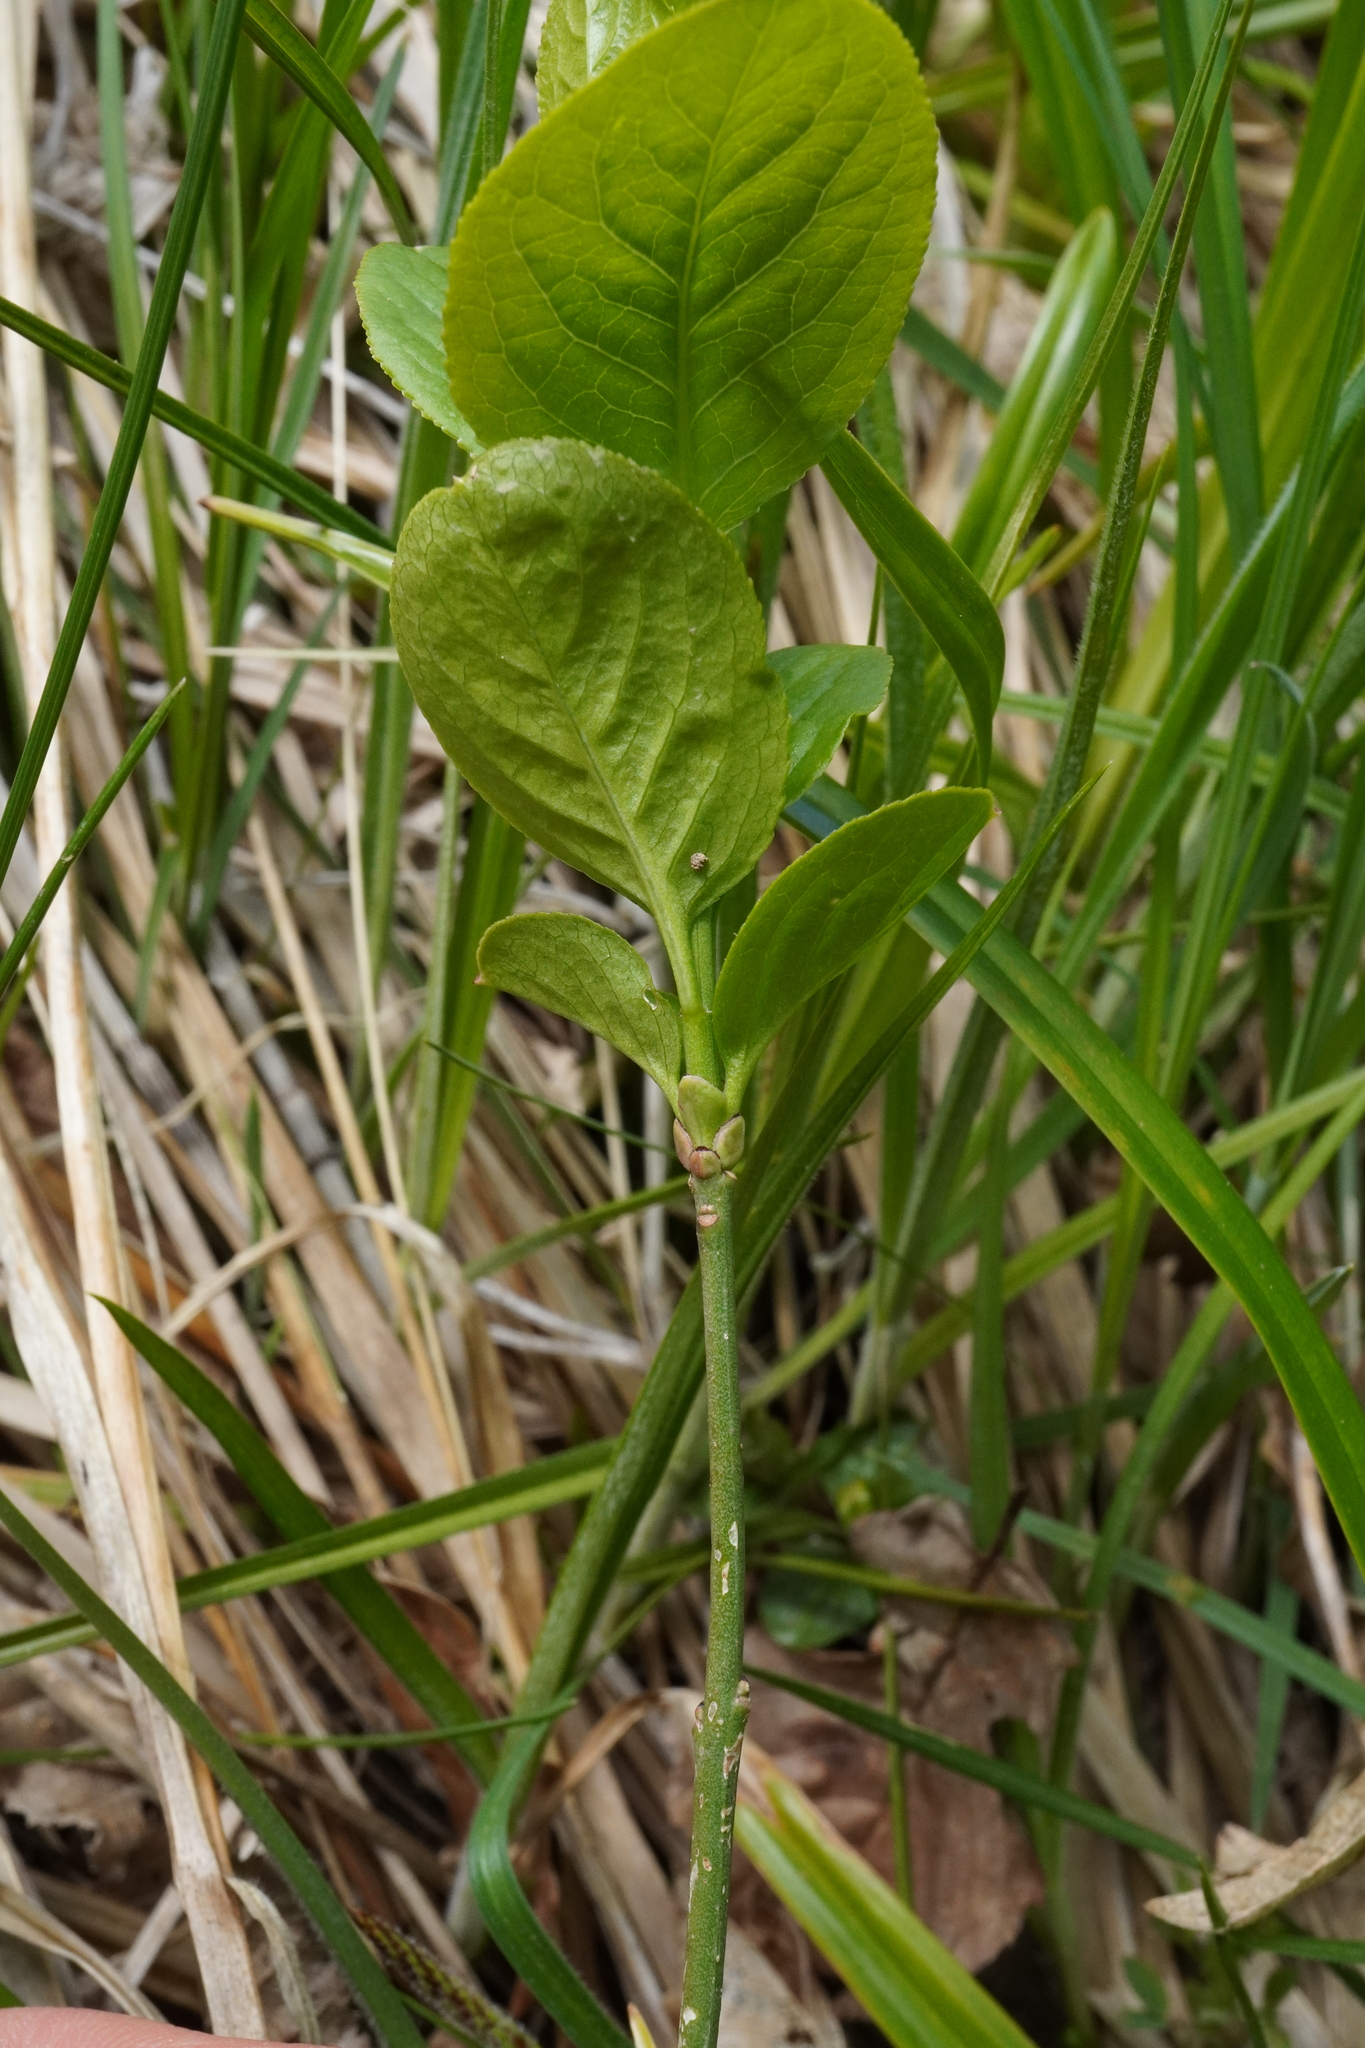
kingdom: Plantae
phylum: Tracheophyta
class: Magnoliopsida
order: Celastrales
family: Celastraceae
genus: Euonymus
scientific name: Euonymus europaeus
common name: Spindle
